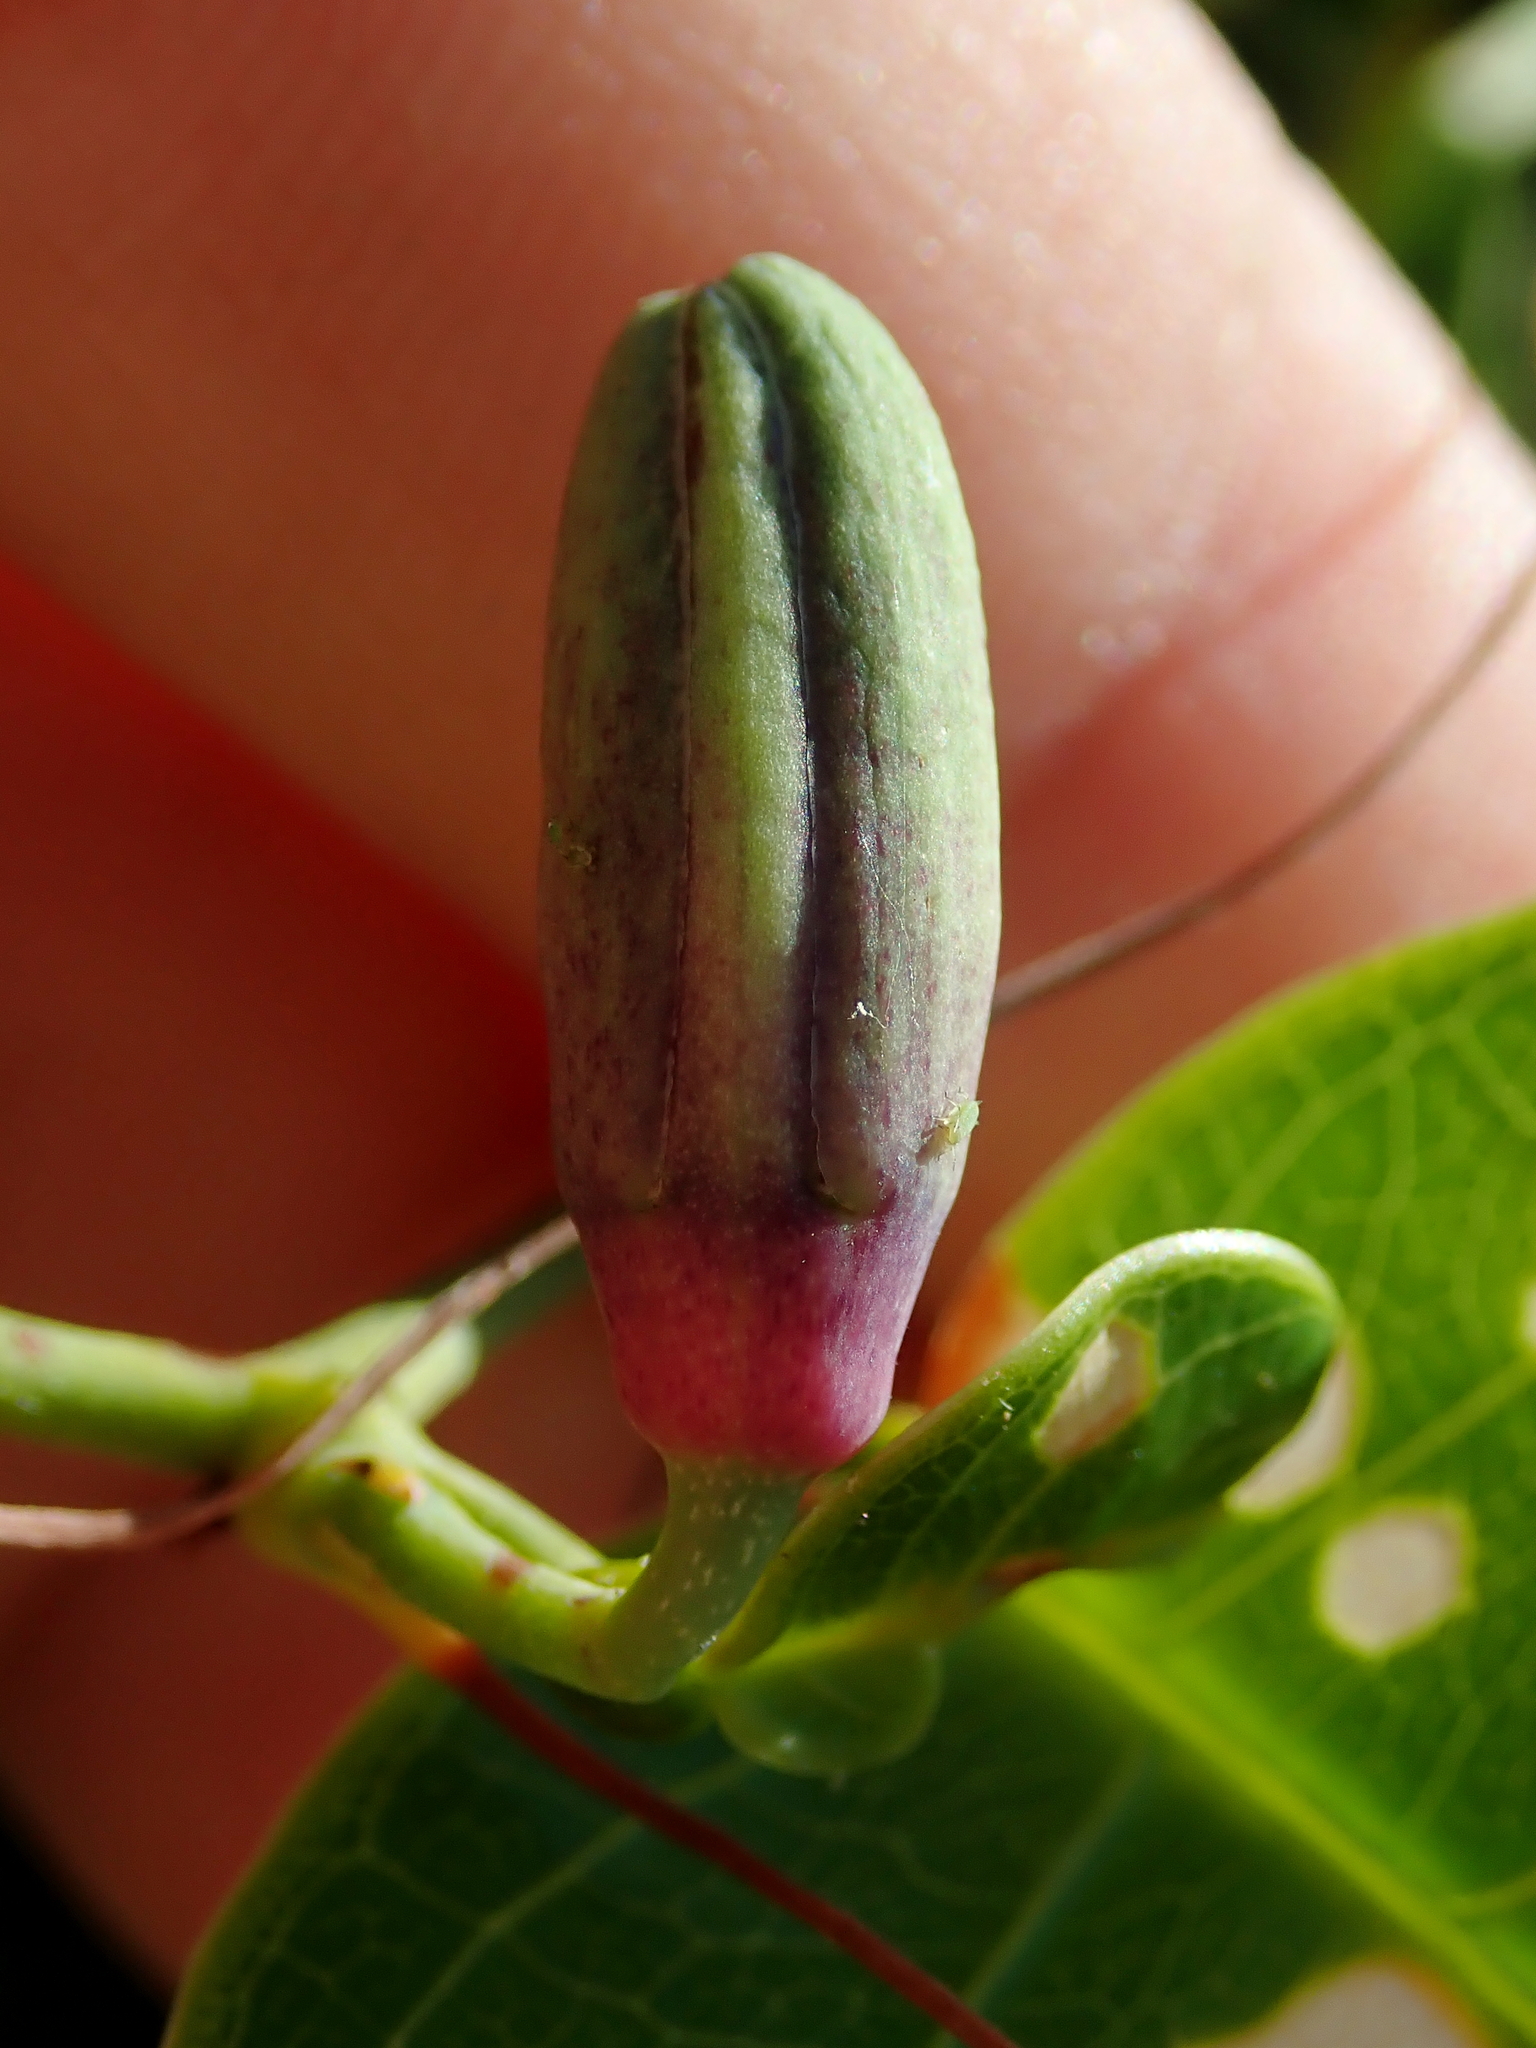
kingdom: Plantae
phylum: Tracheophyta
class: Magnoliopsida
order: Malpighiales
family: Passifloraceae
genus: Passiflora
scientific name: Passiflora cerradensis
